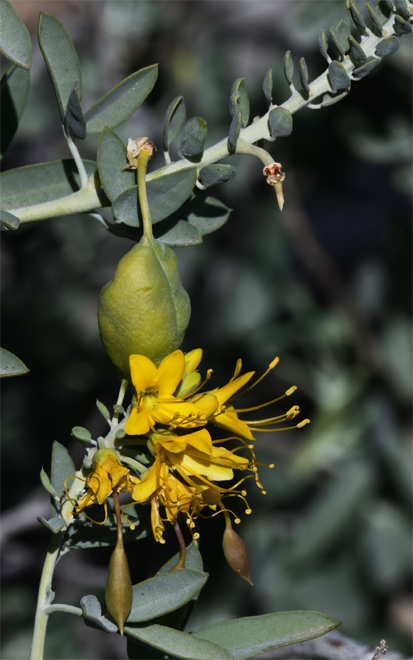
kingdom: Plantae
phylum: Tracheophyta
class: Magnoliopsida
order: Brassicales
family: Cleomaceae
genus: Cleomella
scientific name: Cleomella arborea
